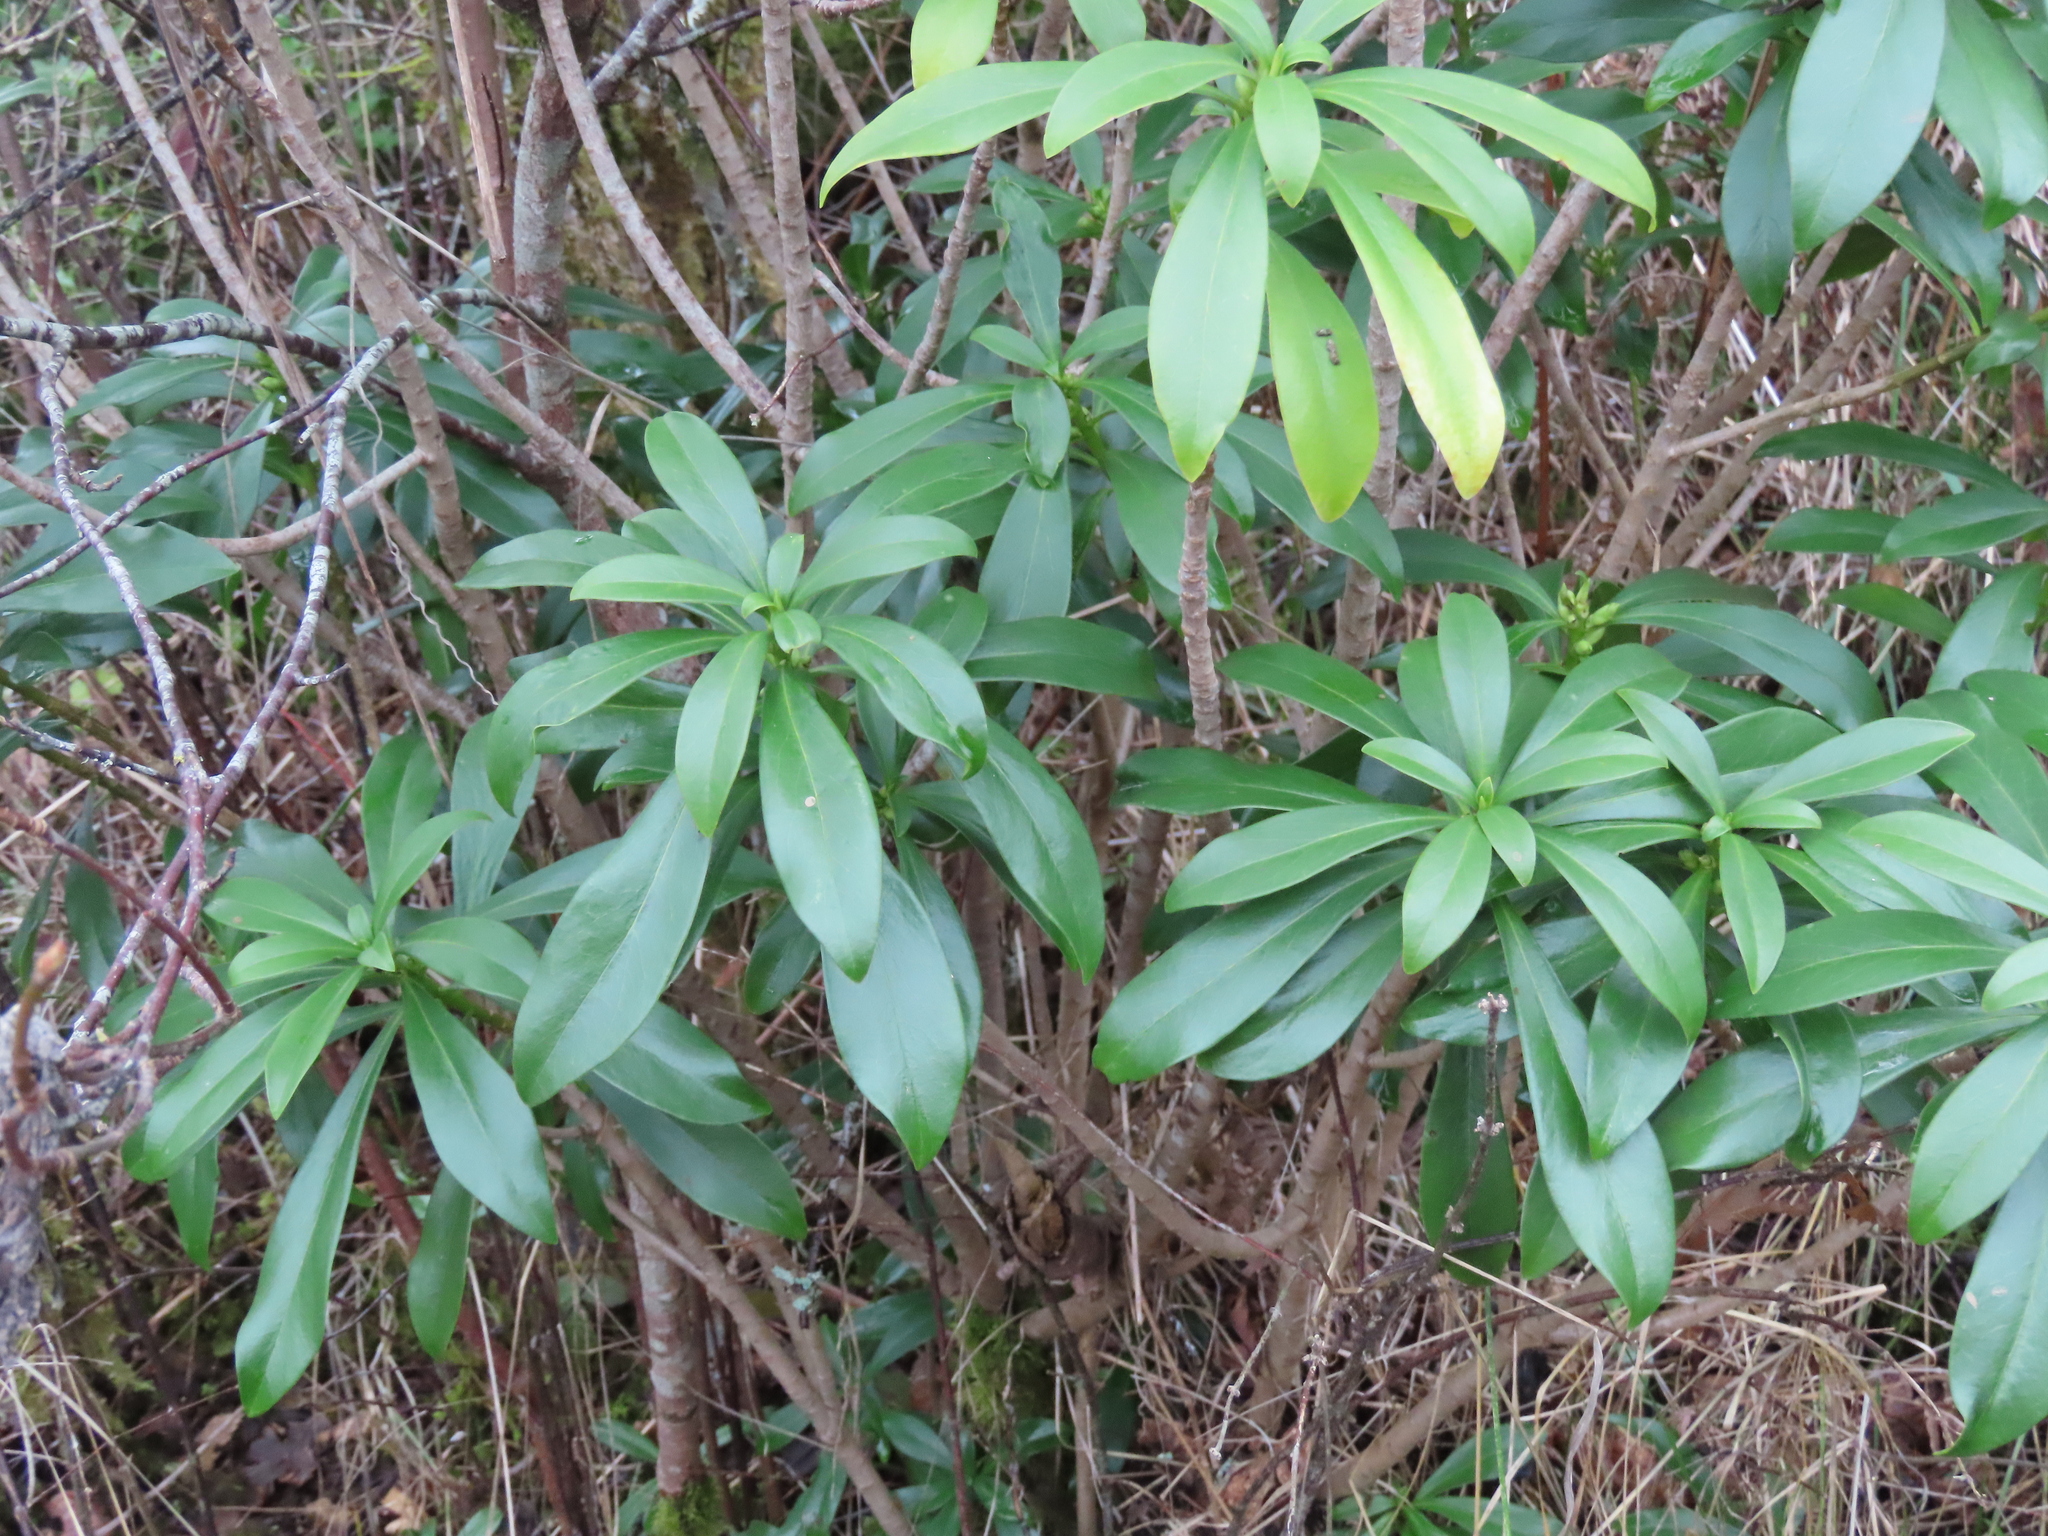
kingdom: Plantae
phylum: Tracheophyta
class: Magnoliopsida
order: Malvales
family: Thymelaeaceae
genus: Daphne
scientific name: Daphne laureola
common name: Spurge-laurel
